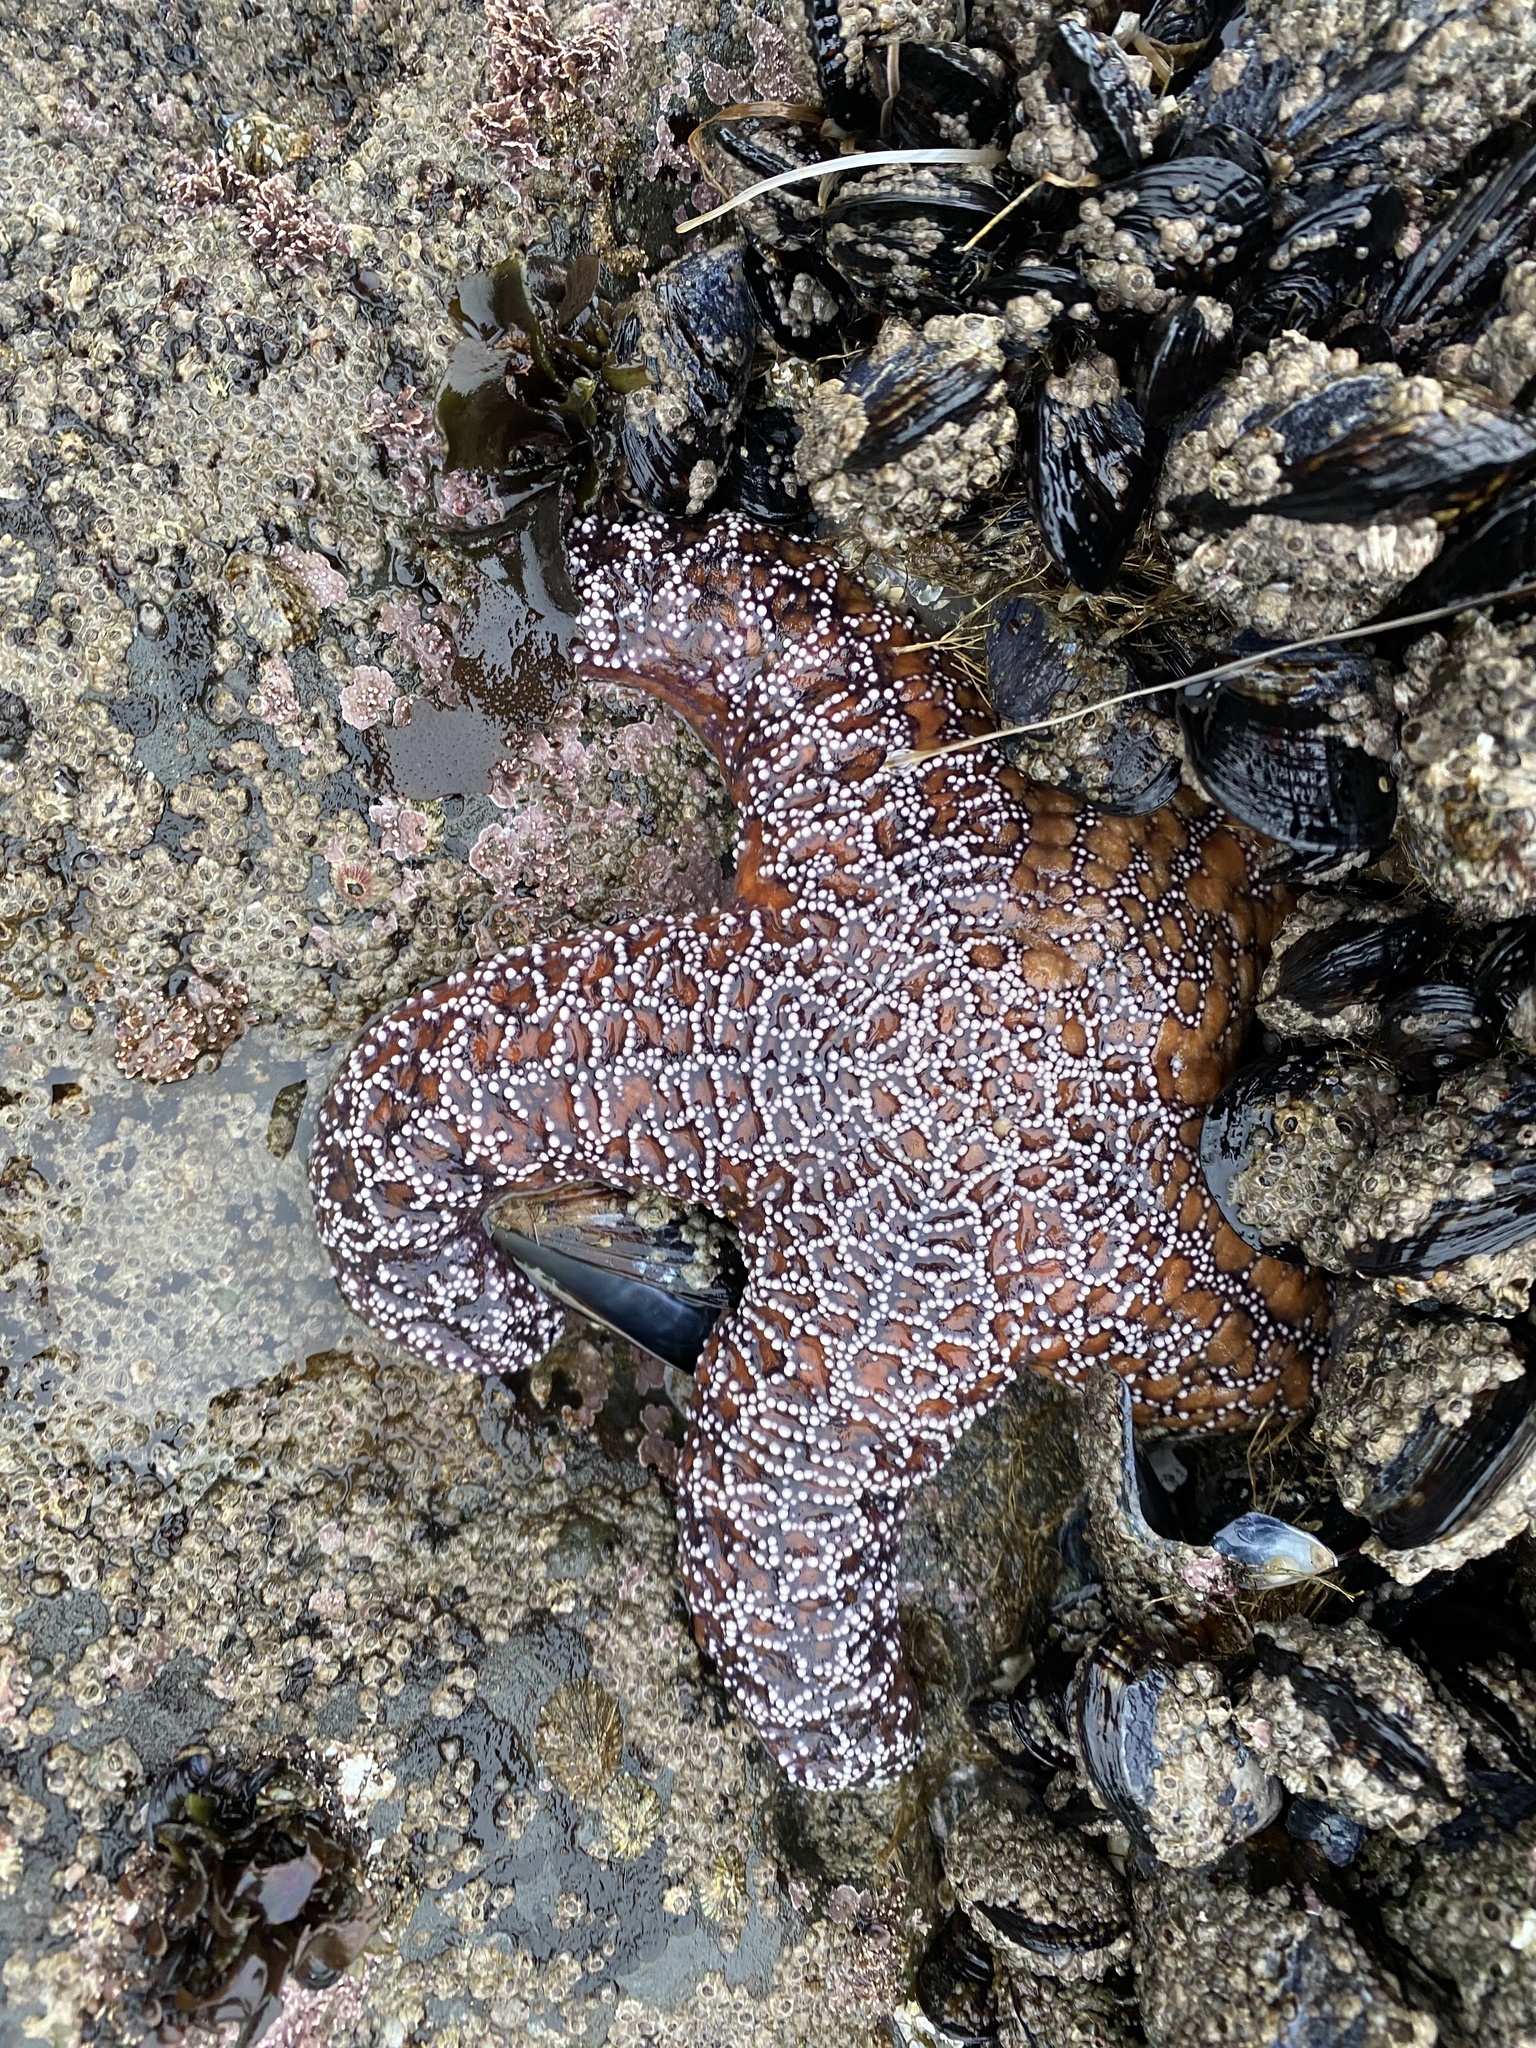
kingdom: Animalia
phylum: Echinodermata
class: Asteroidea
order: Forcipulatida
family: Asteriidae
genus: Pisaster
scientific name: Pisaster ochraceus
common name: Ochre stars
